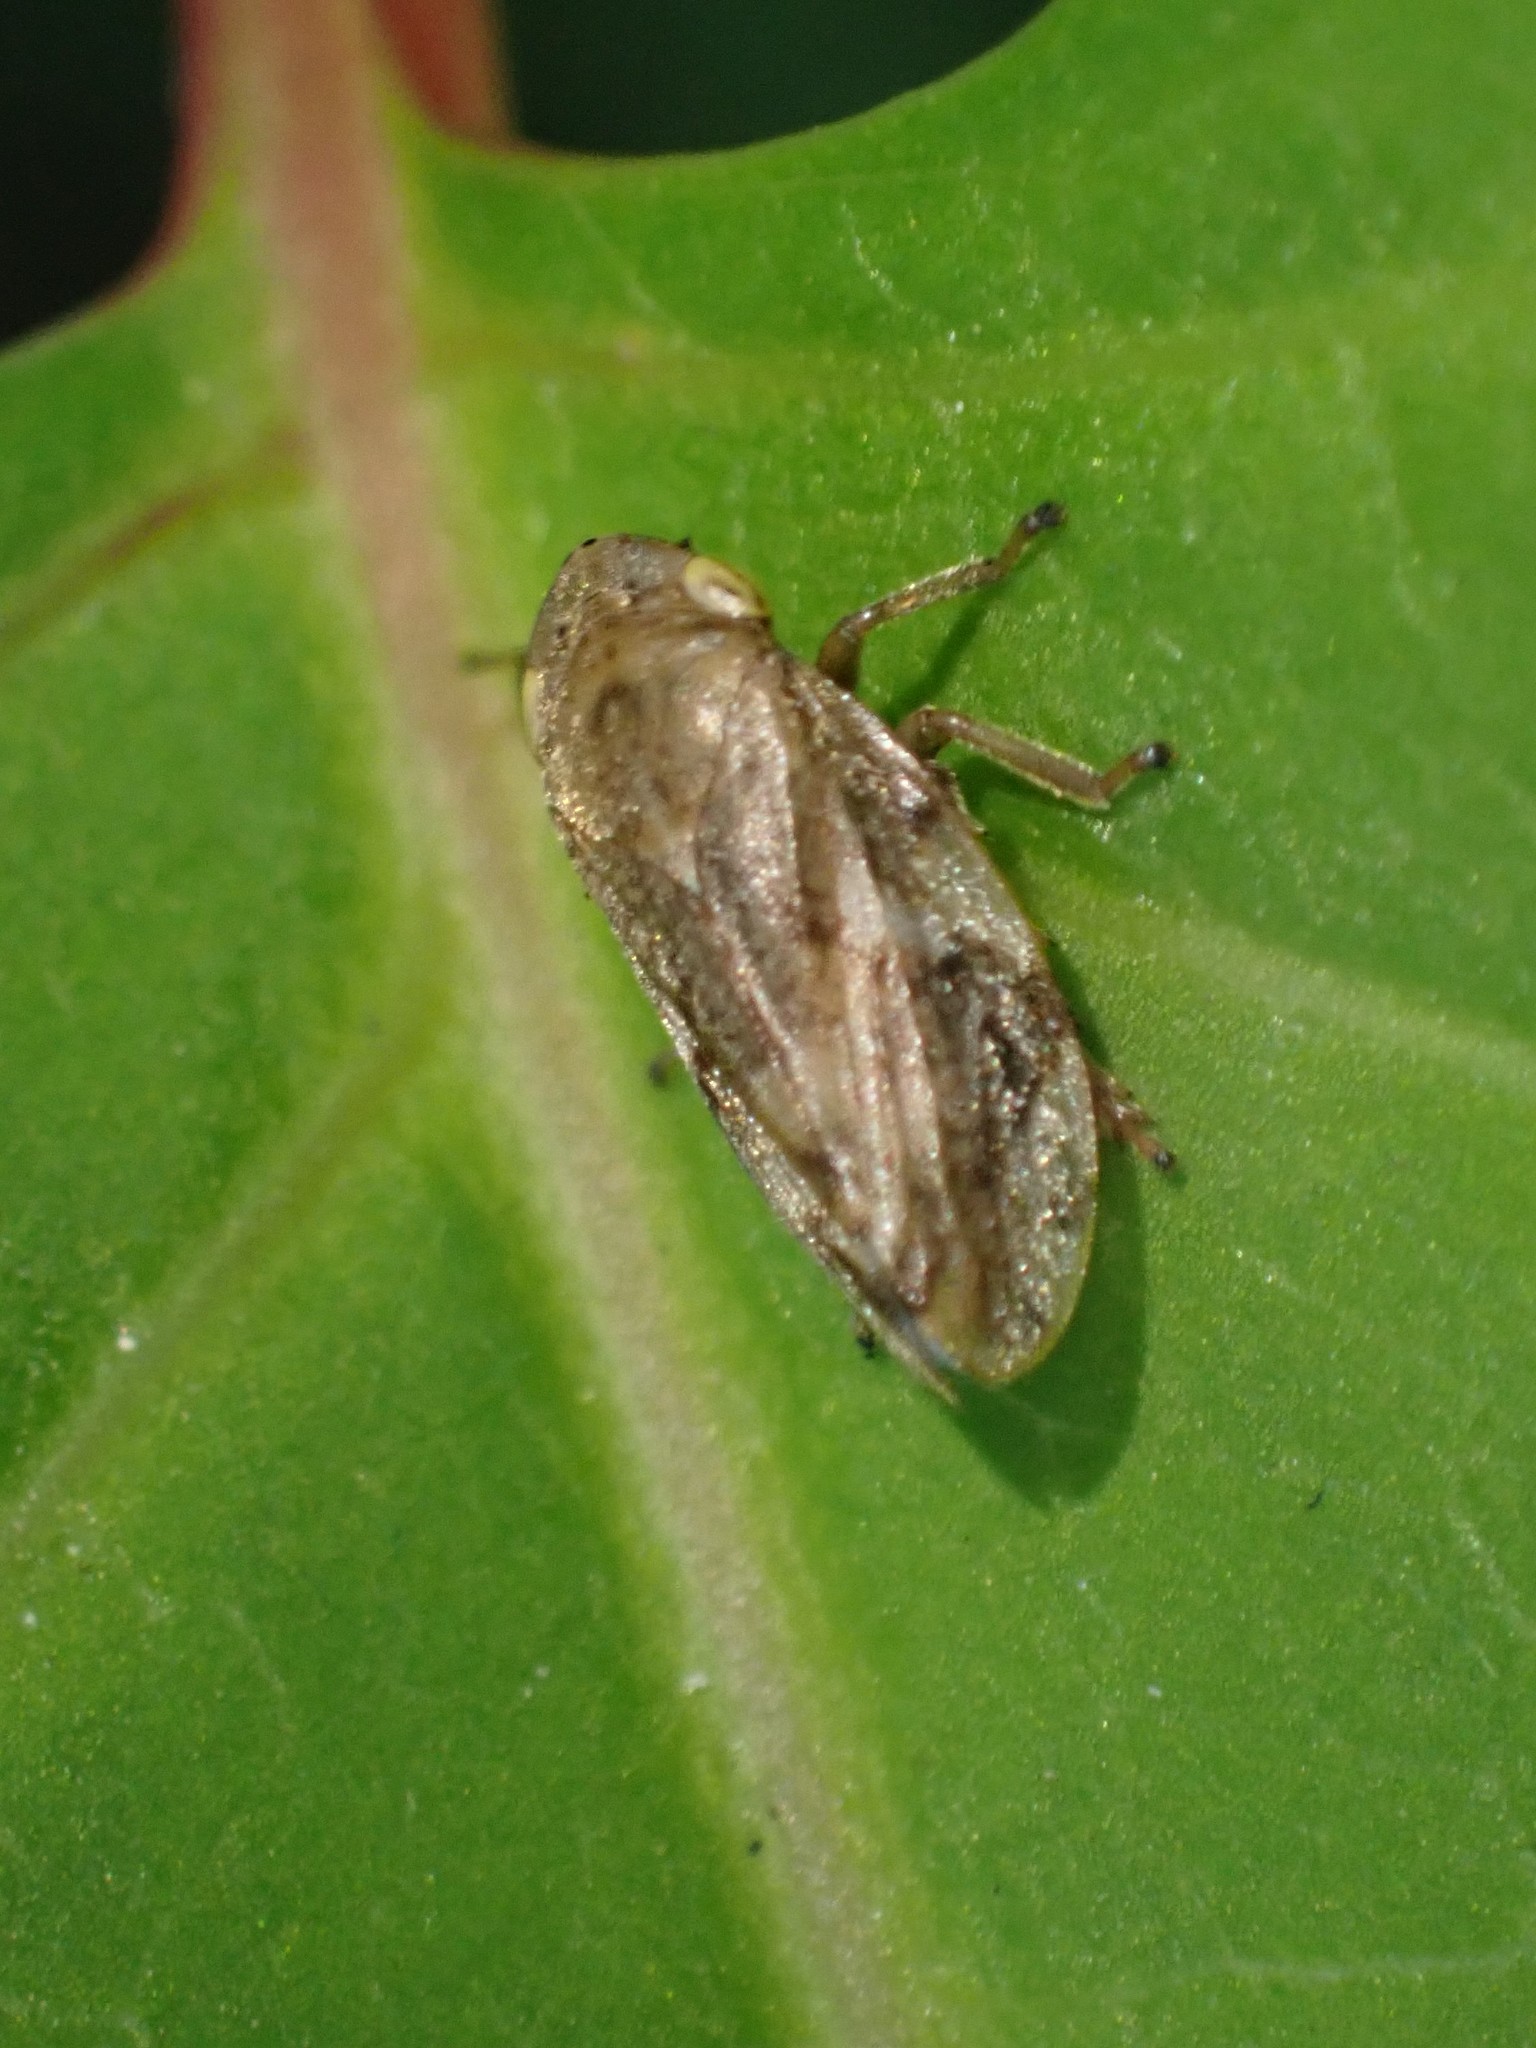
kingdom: Animalia
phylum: Arthropoda
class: Insecta
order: Hemiptera
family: Aphrophoridae
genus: Philaenus
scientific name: Philaenus spumarius
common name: Meadow spittlebug
